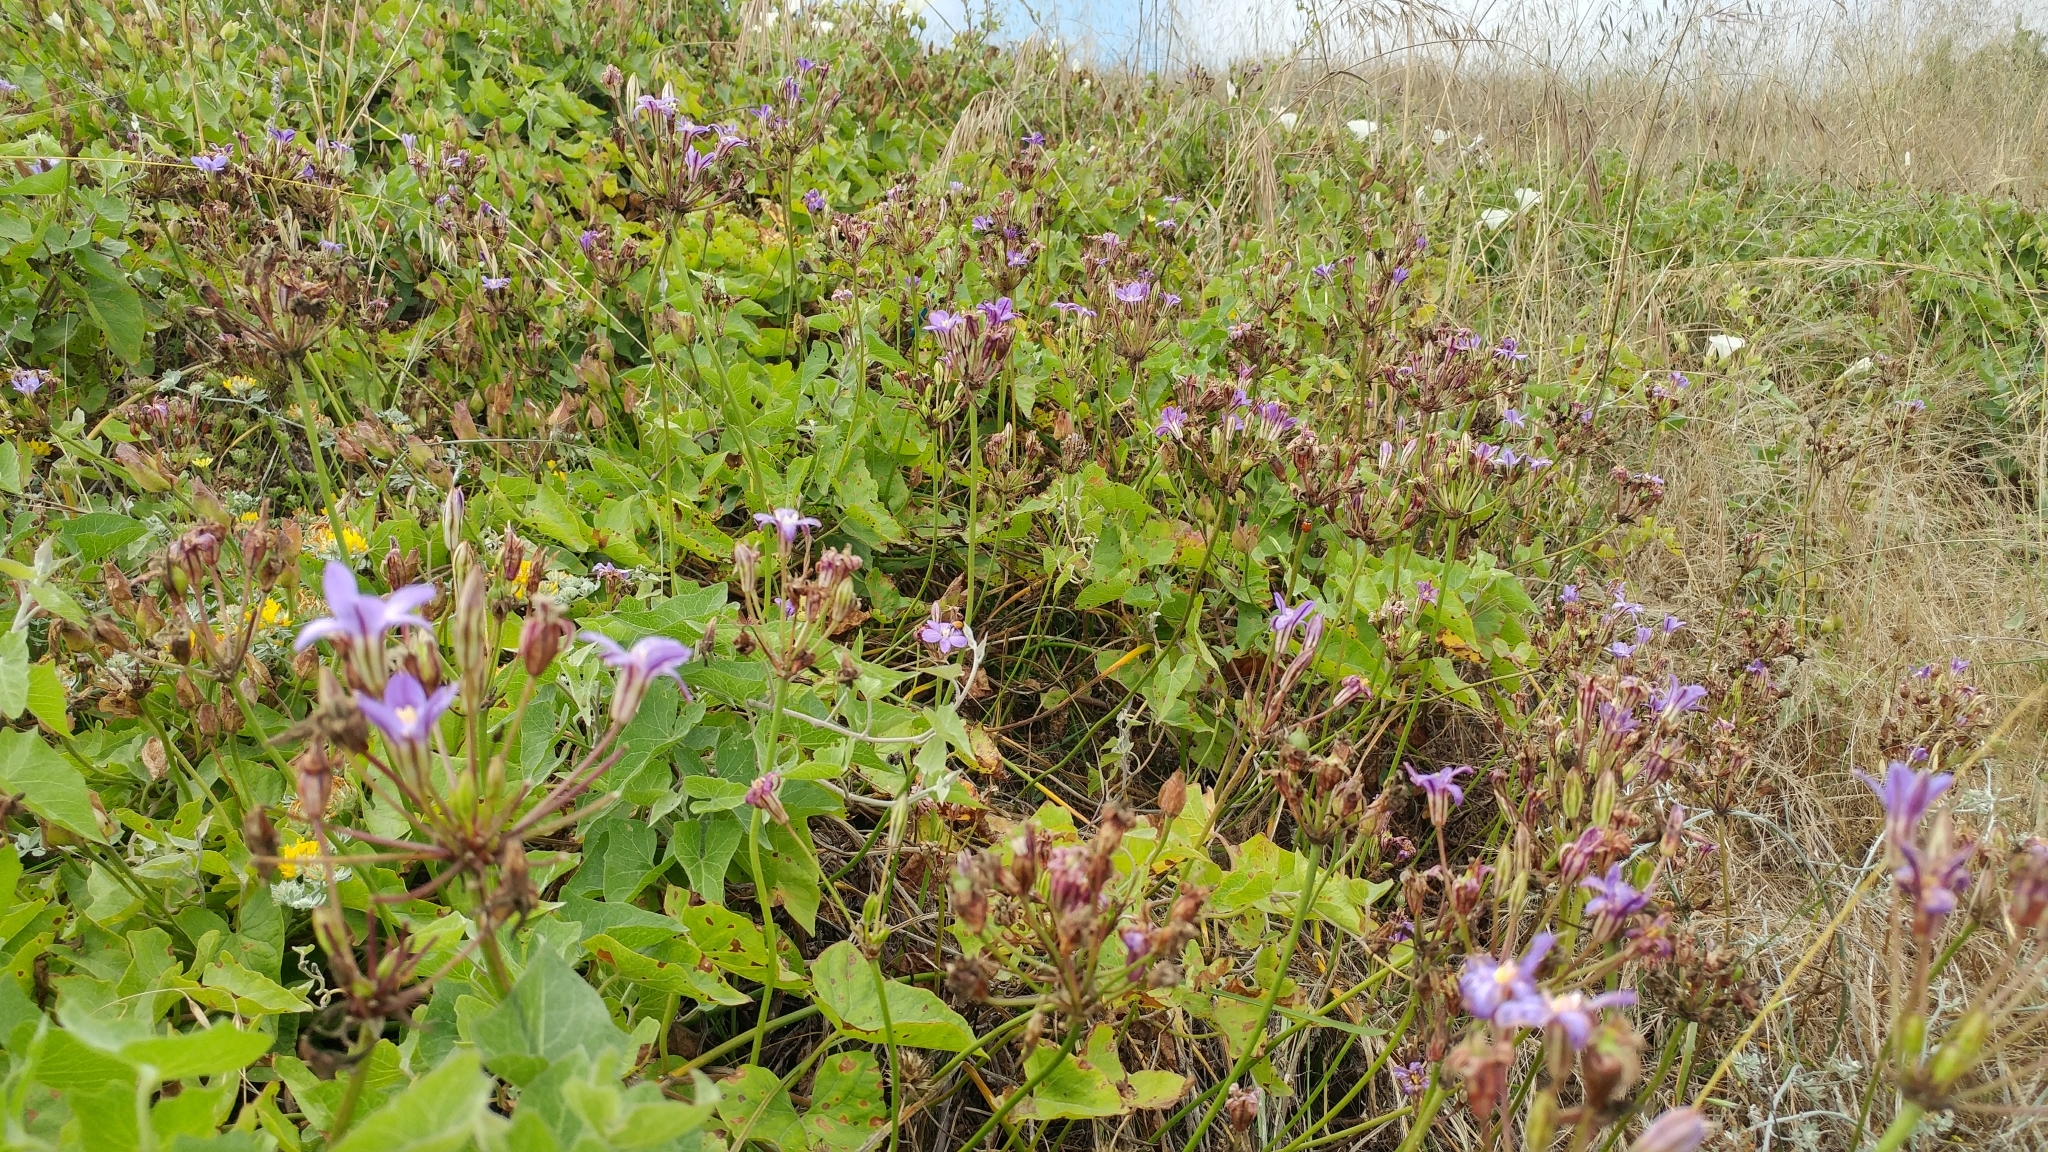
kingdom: Plantae
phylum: Tracheophyta
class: Liliopsida
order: Asparagales
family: Asparagaceae
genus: Brodiaea
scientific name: Brodiaea kinkiensis
